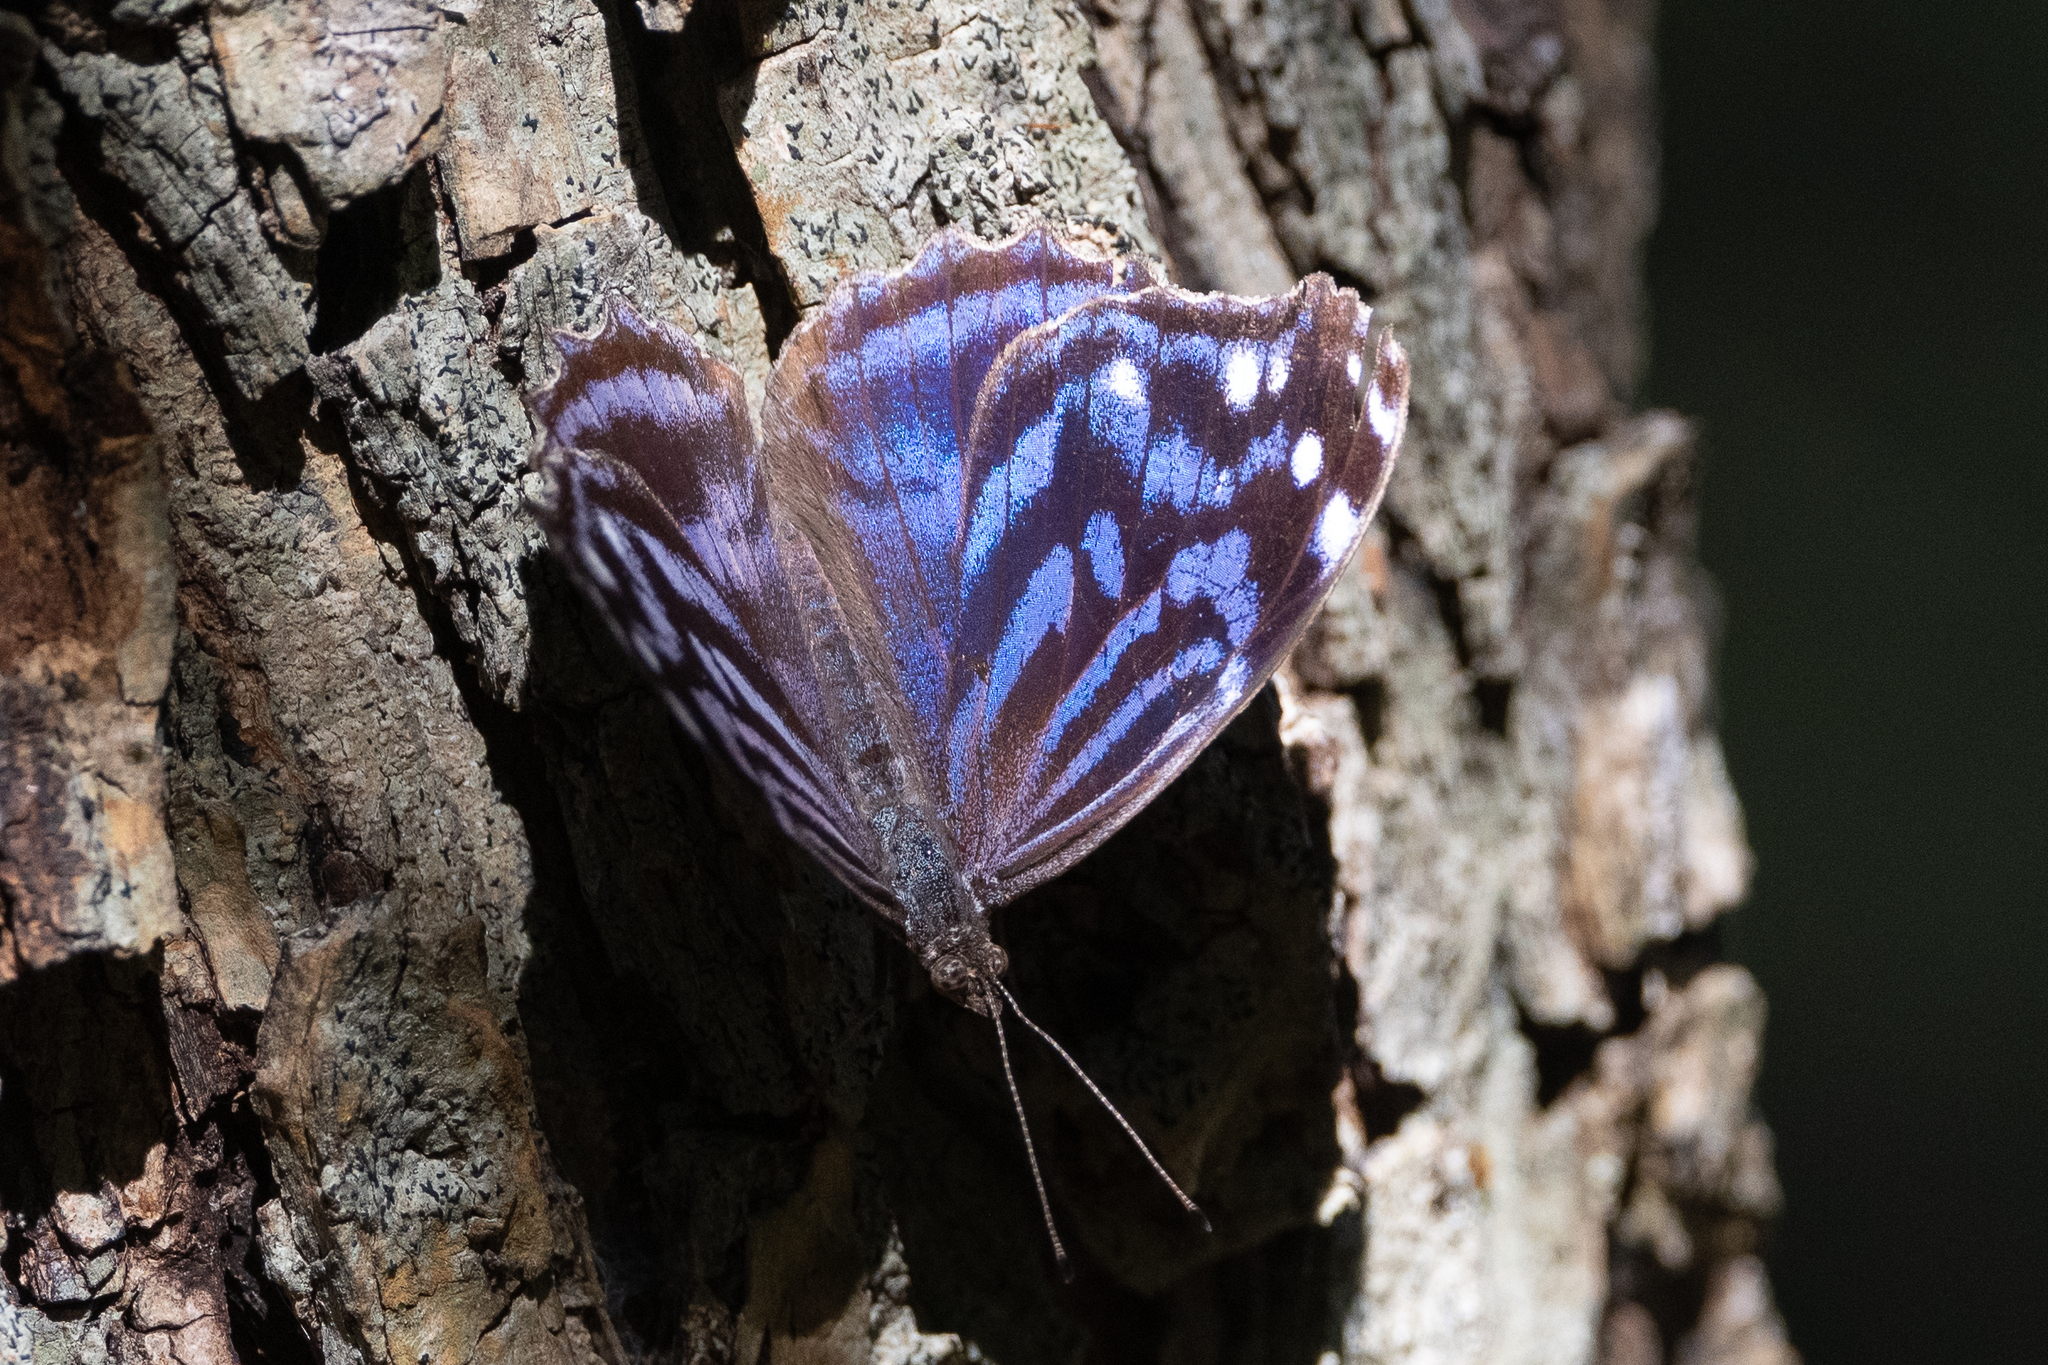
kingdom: Animalia
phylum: Arthropoda
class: Insecta
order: Lepidoptera
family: Nymphalidae
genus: Myscelia
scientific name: Myscelia ethusa
